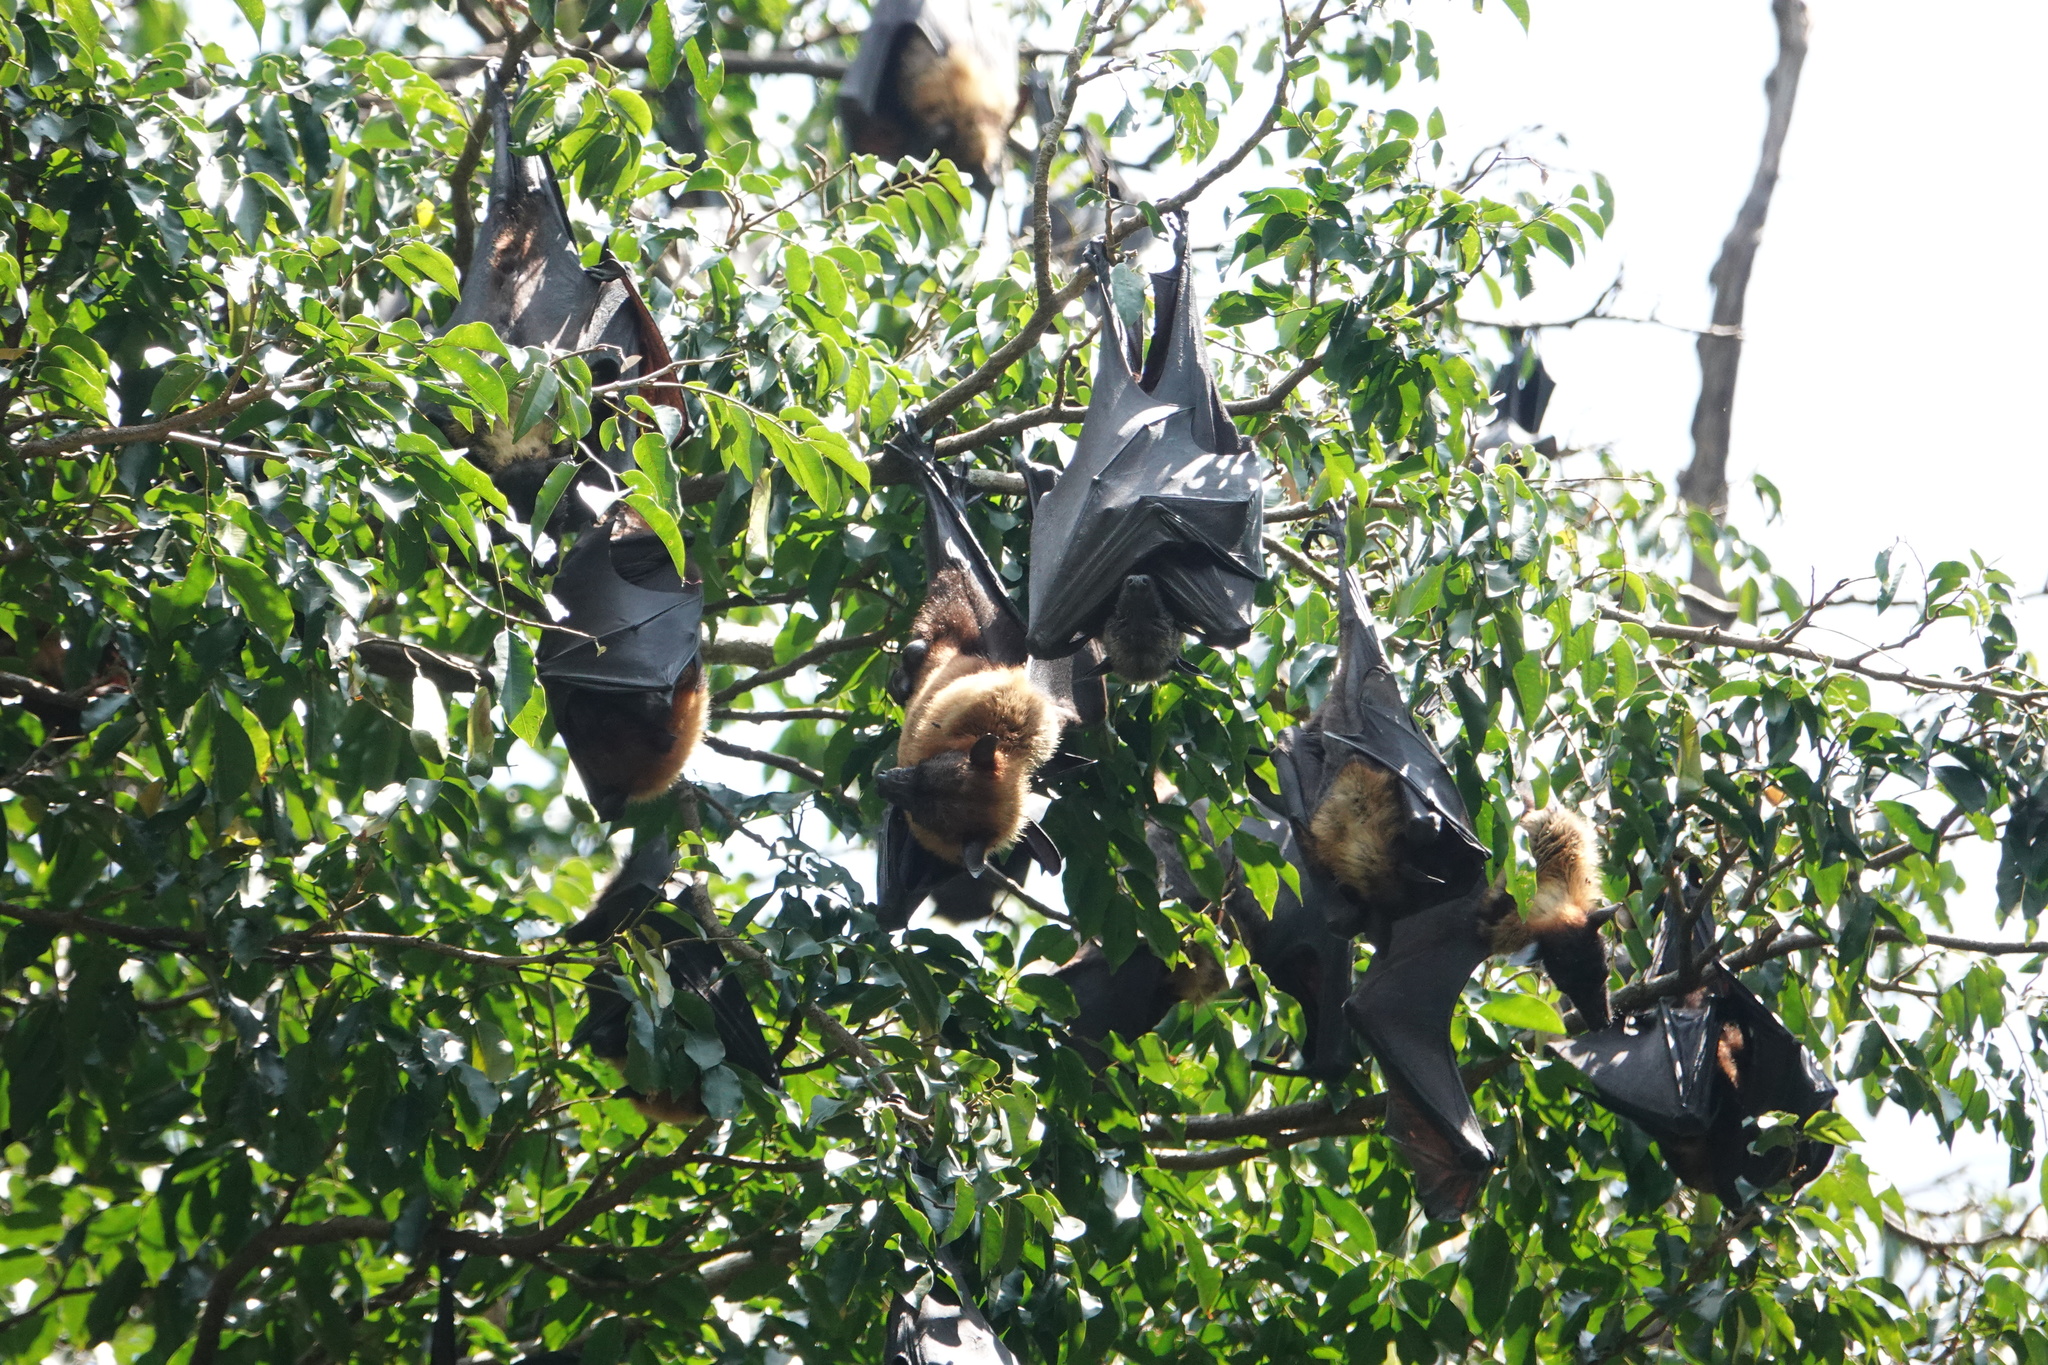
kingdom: Animalia
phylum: Chordata
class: Mammalia
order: Chiroptera
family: Pteropodidae
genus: Pteropus
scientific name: Pteropus vampyrus
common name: Large flying fox
